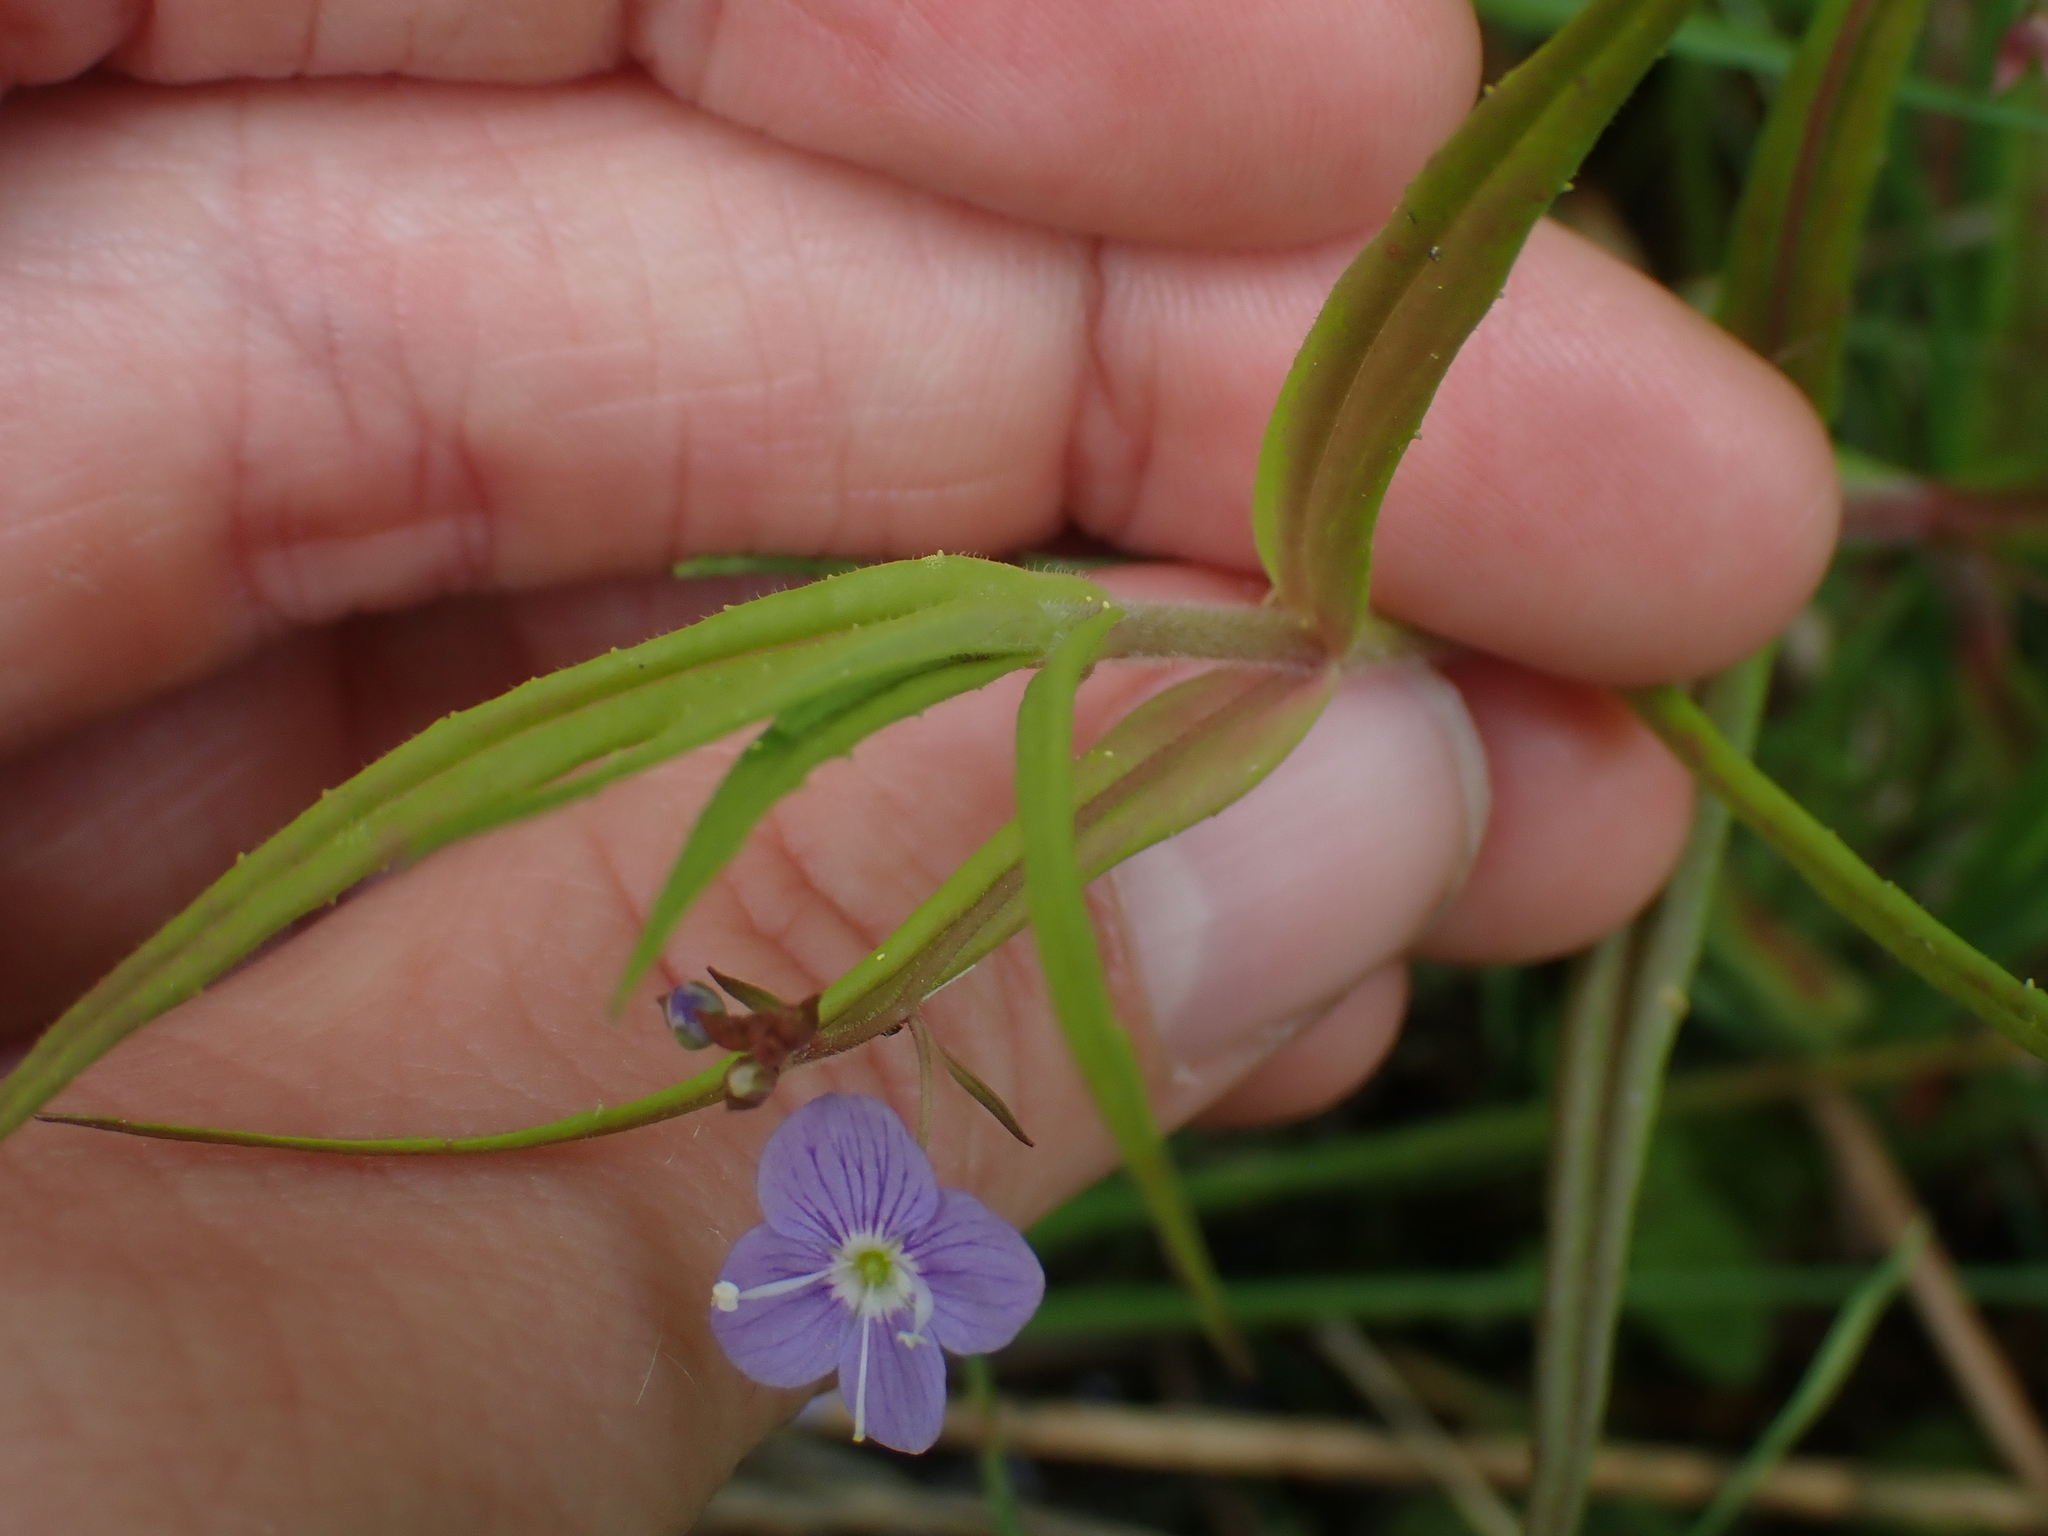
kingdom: Plantae
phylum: Tracheophyta
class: Magnoliopsida
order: Lamiales
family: Plantaginaceae
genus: Veronica
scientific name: Veronica scutellata
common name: Marsh speedwell
